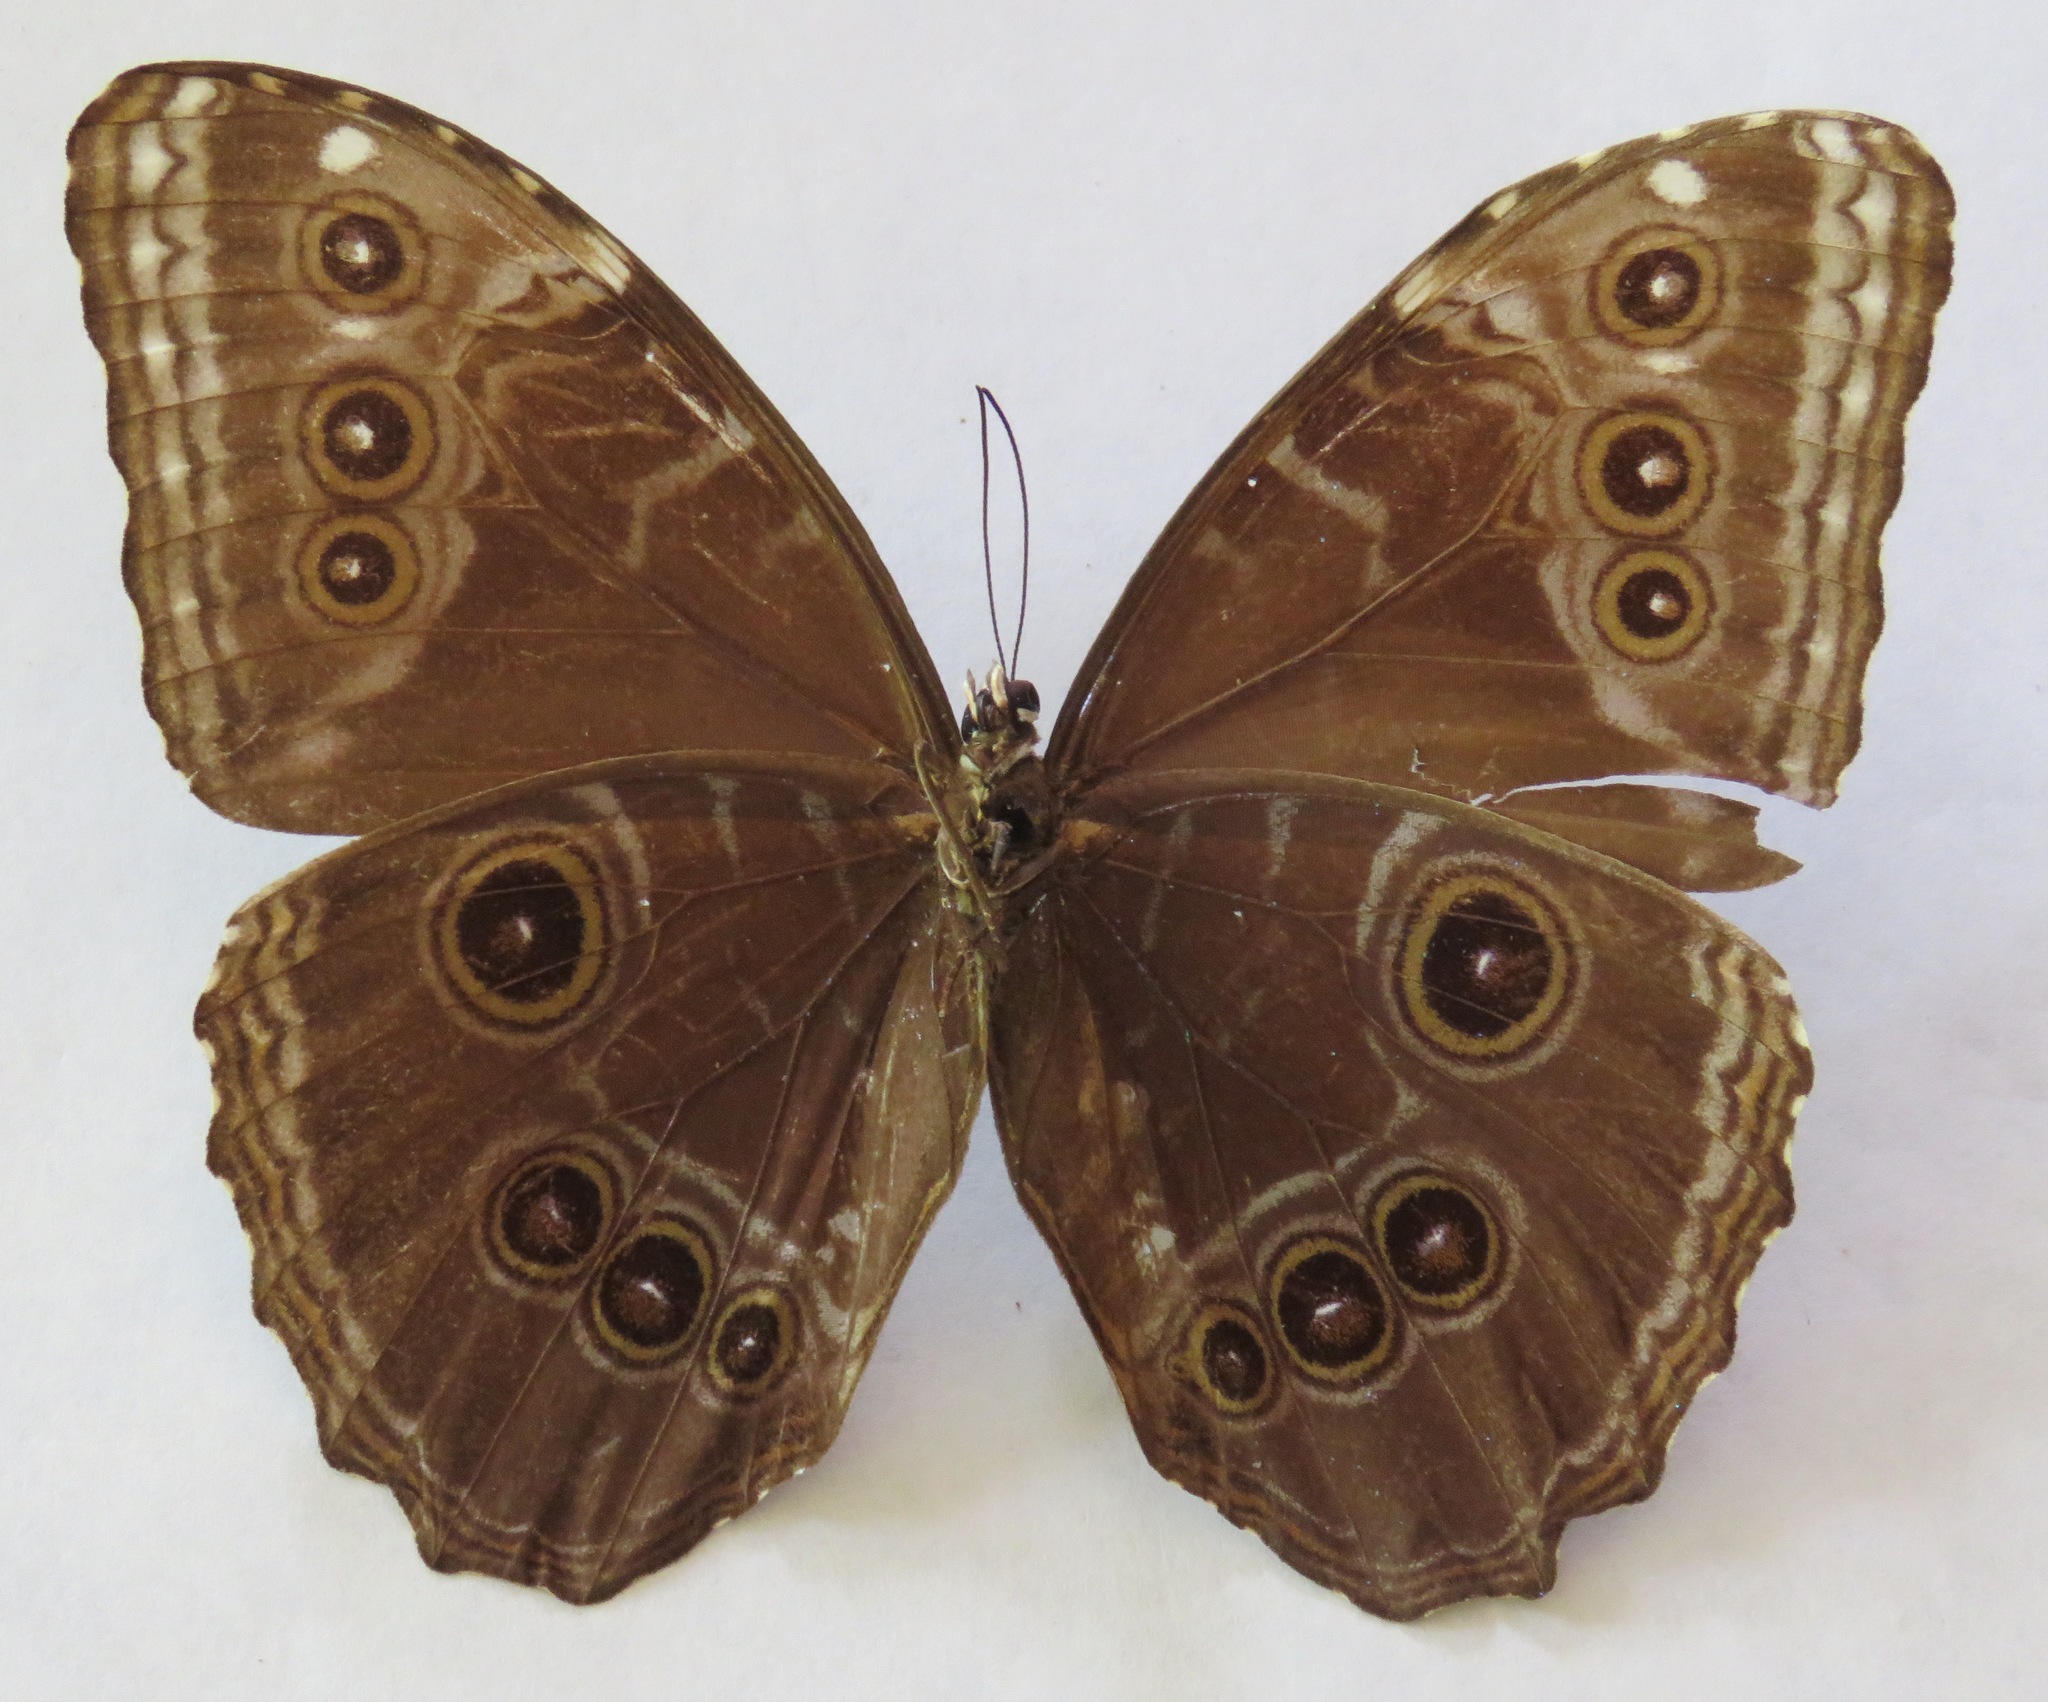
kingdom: Animalia
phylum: Arthropoda
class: Insecta
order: Lepidoptera
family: Nymphalidae
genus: Morpho
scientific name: Morpho helenor
